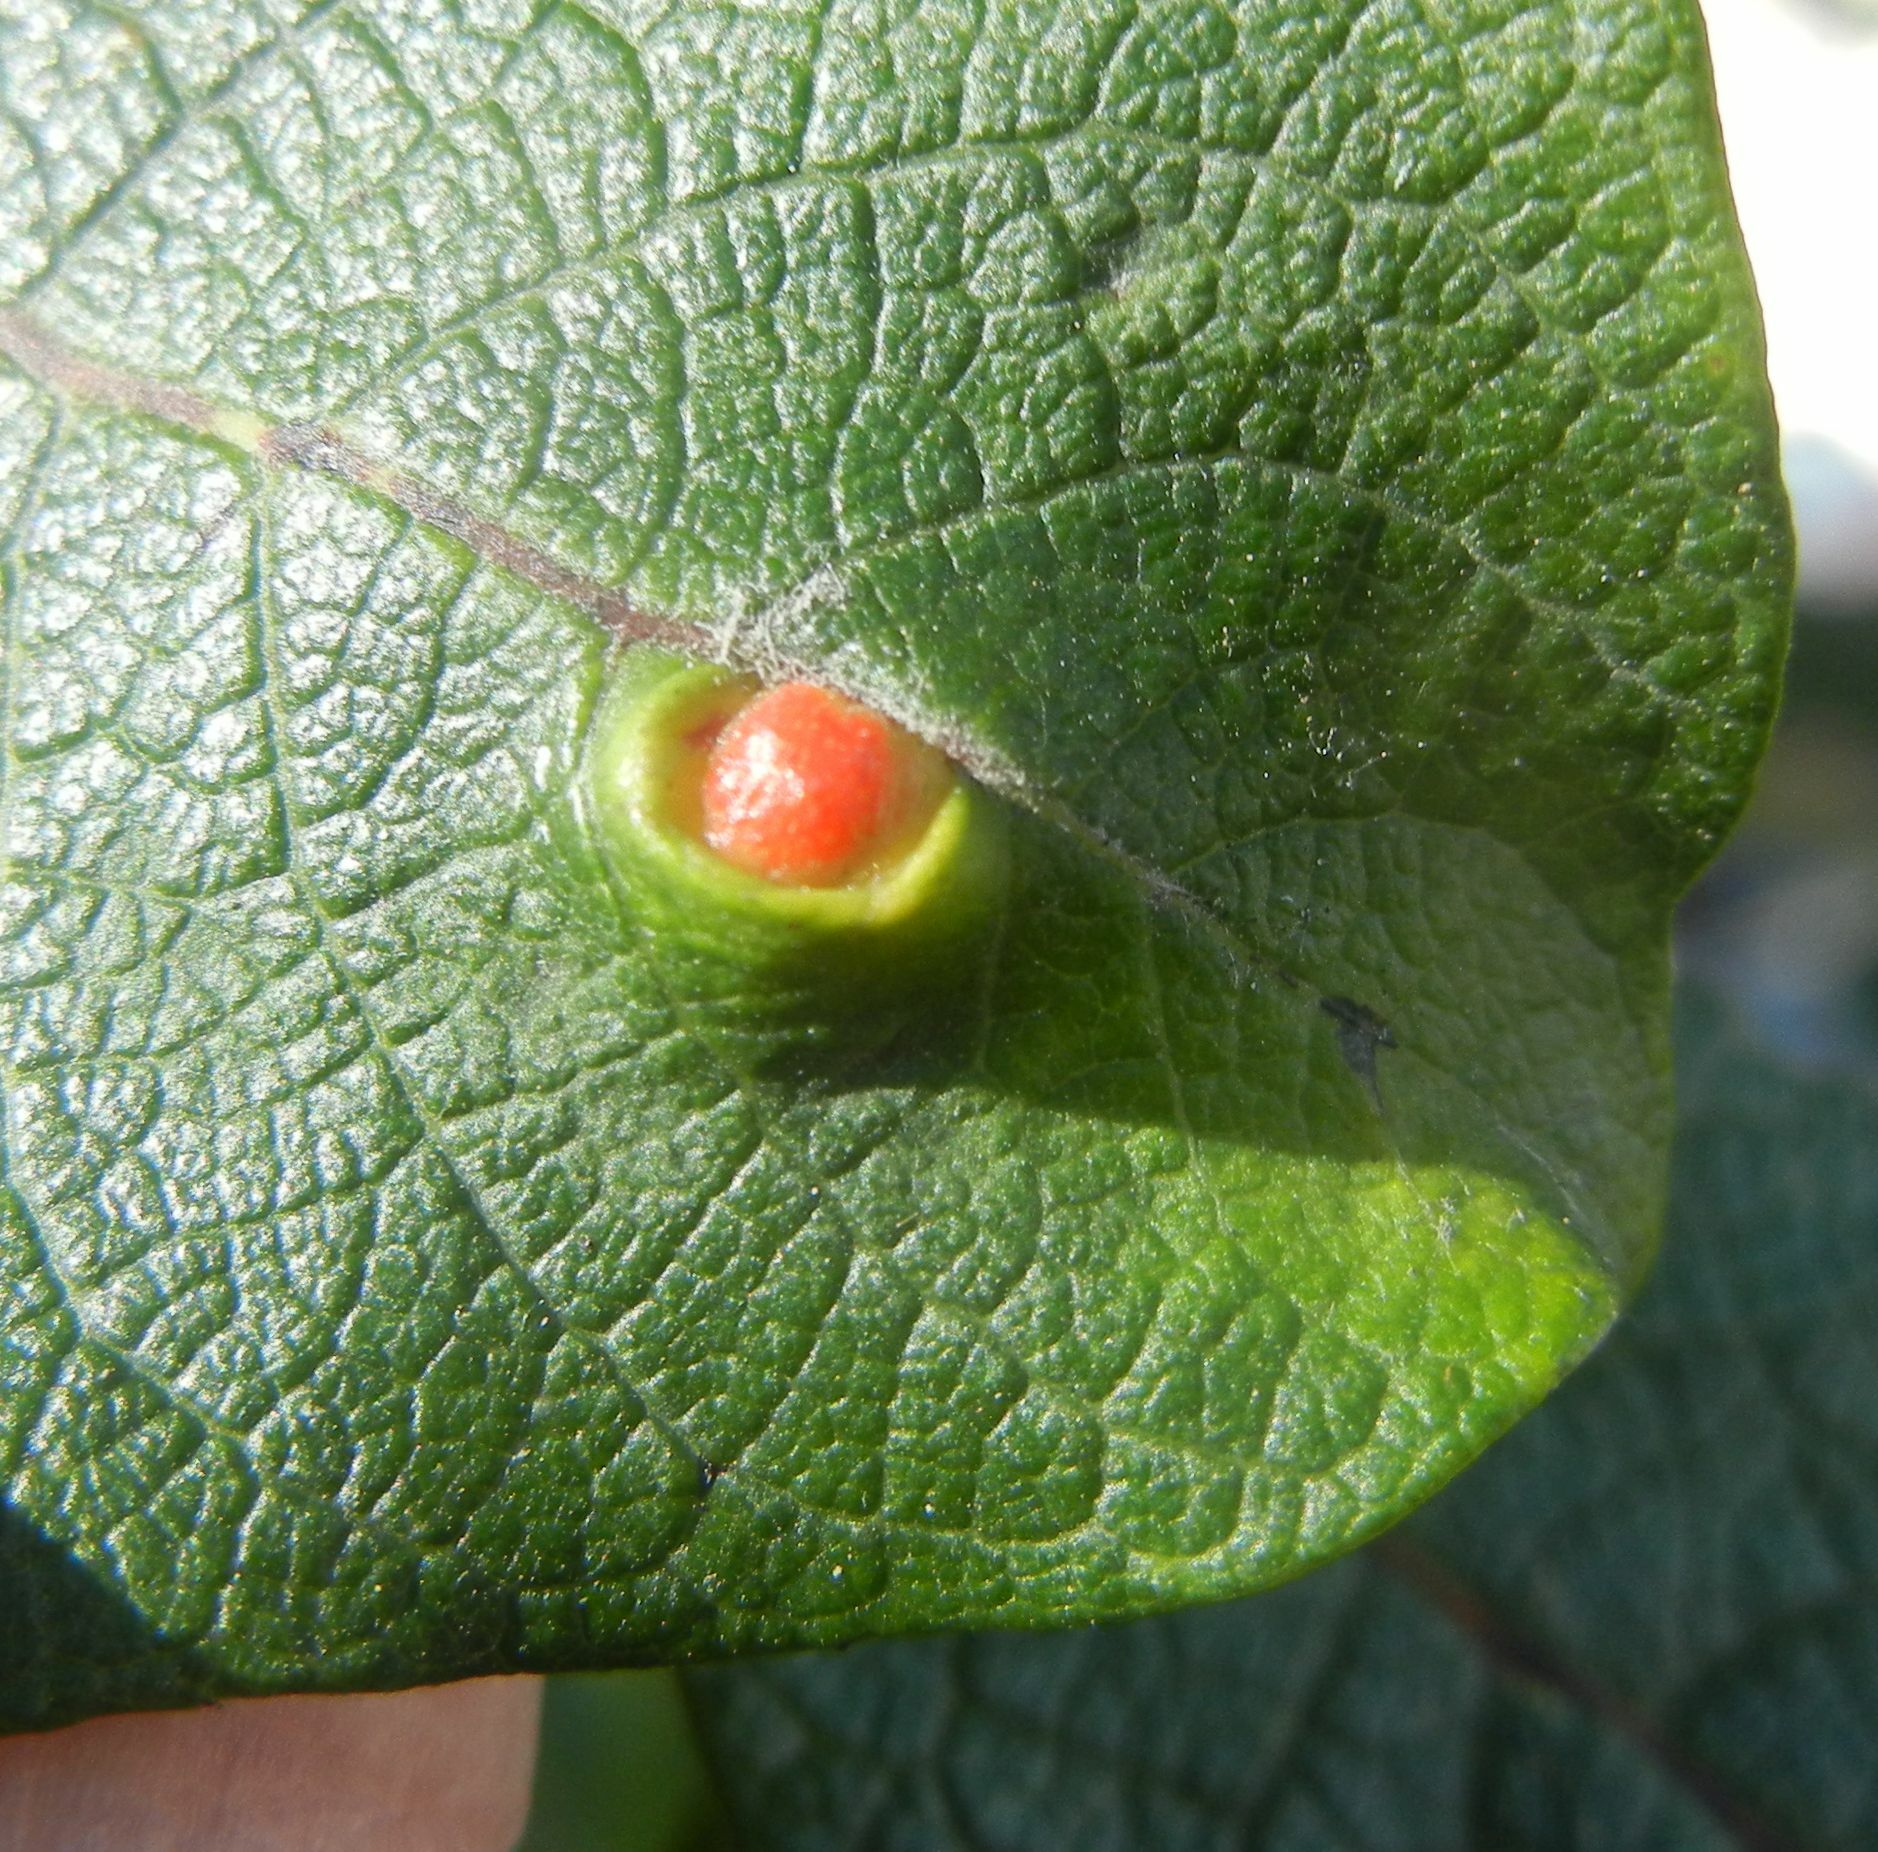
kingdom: Animalia
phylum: Arthropoda
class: Insecta
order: Hymenoptera
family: Tenthredinidae
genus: Pontania
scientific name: Pontania pedunculi
